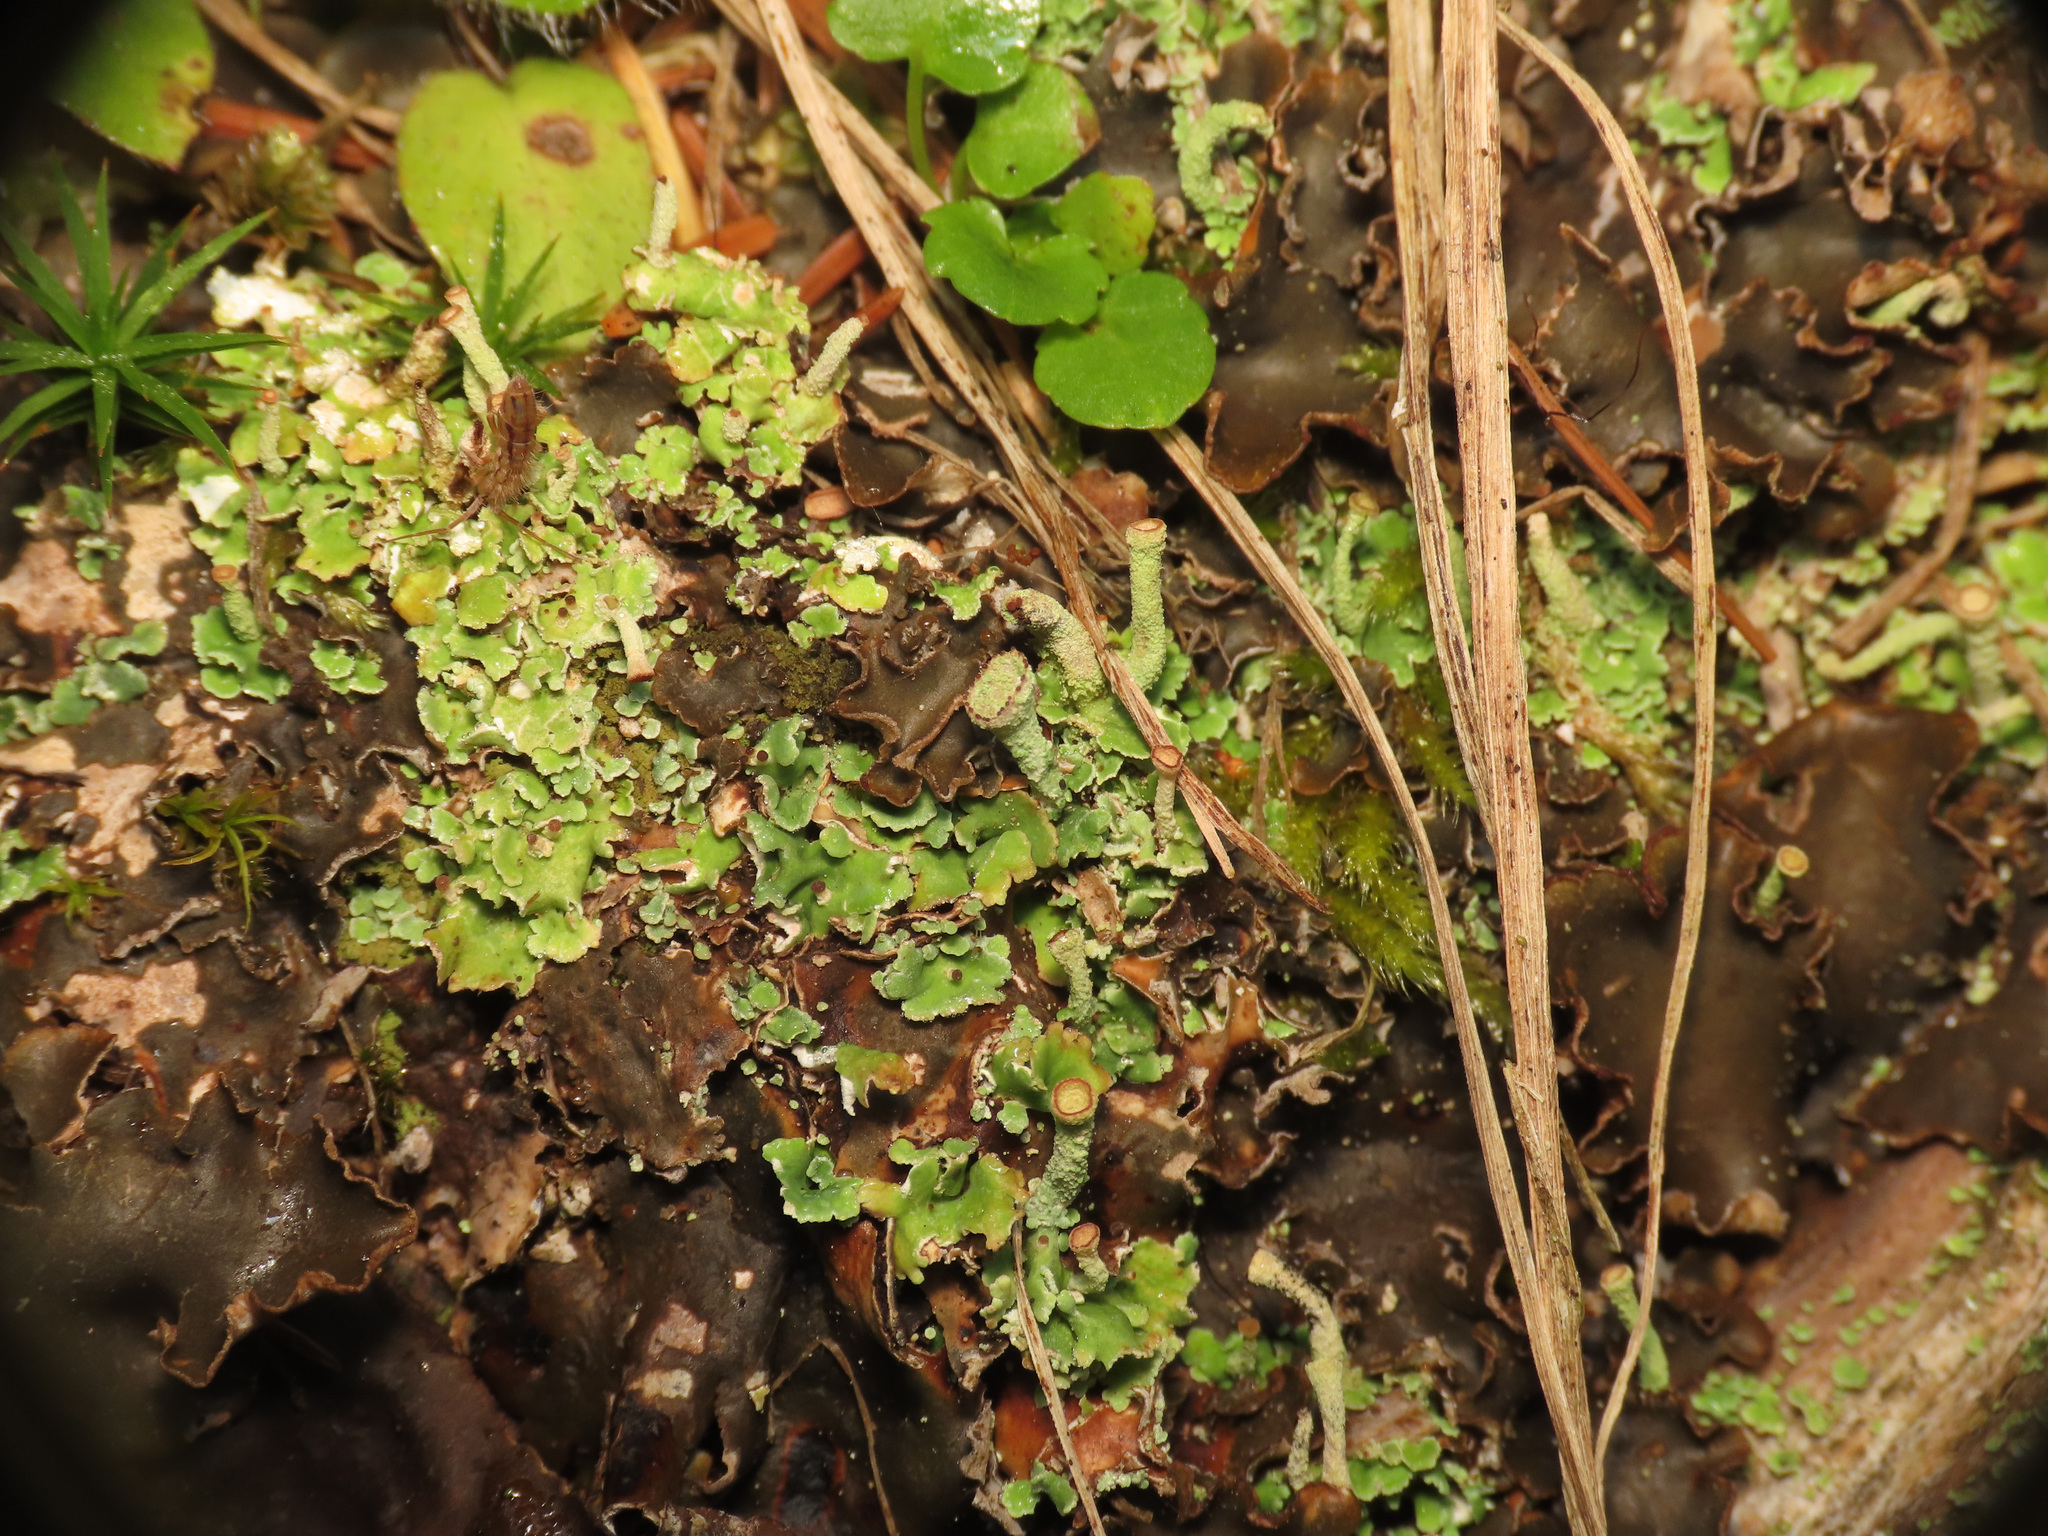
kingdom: Fungi
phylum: Ascomycota
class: Lecanoromycetes
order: Lecanorales
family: Cladoniaceae
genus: Cladonia
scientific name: Cladonia
